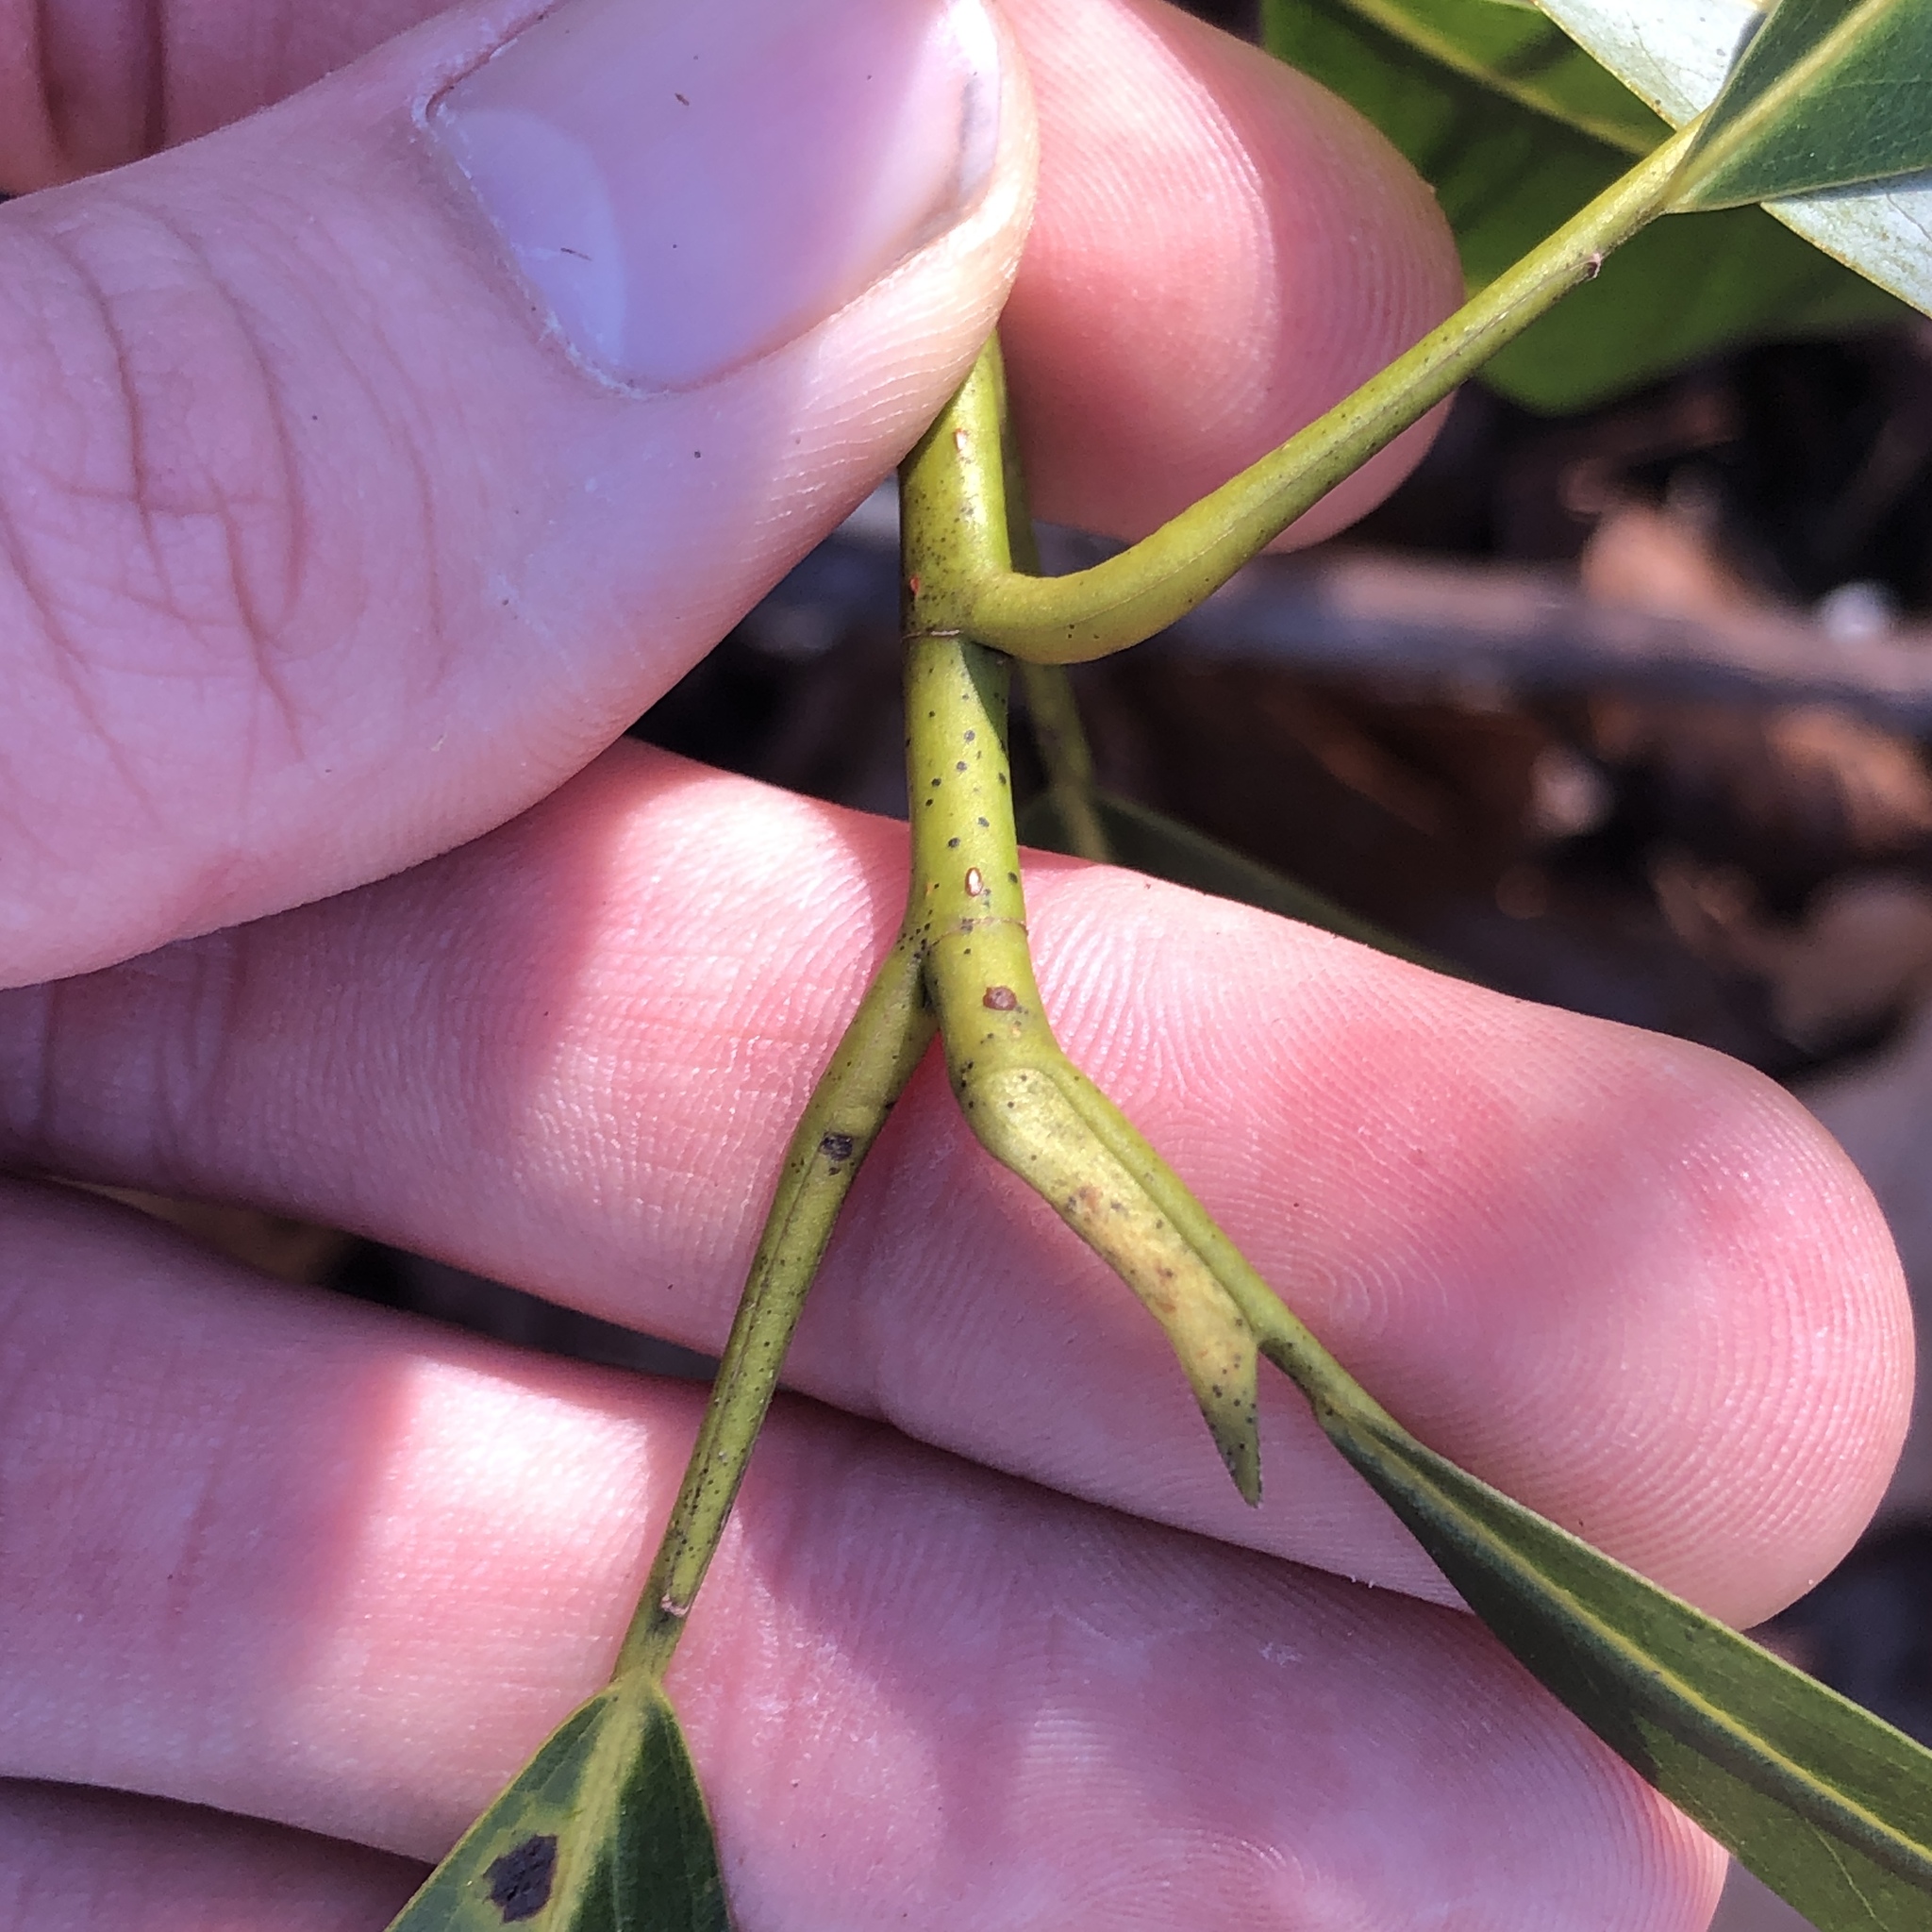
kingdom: Plantae
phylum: Tracheophyta
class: Magnoliopsida
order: Magnoliales
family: Magnoliaceae
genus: Magnolia
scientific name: Magnolia virginiana
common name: Swamp bay
